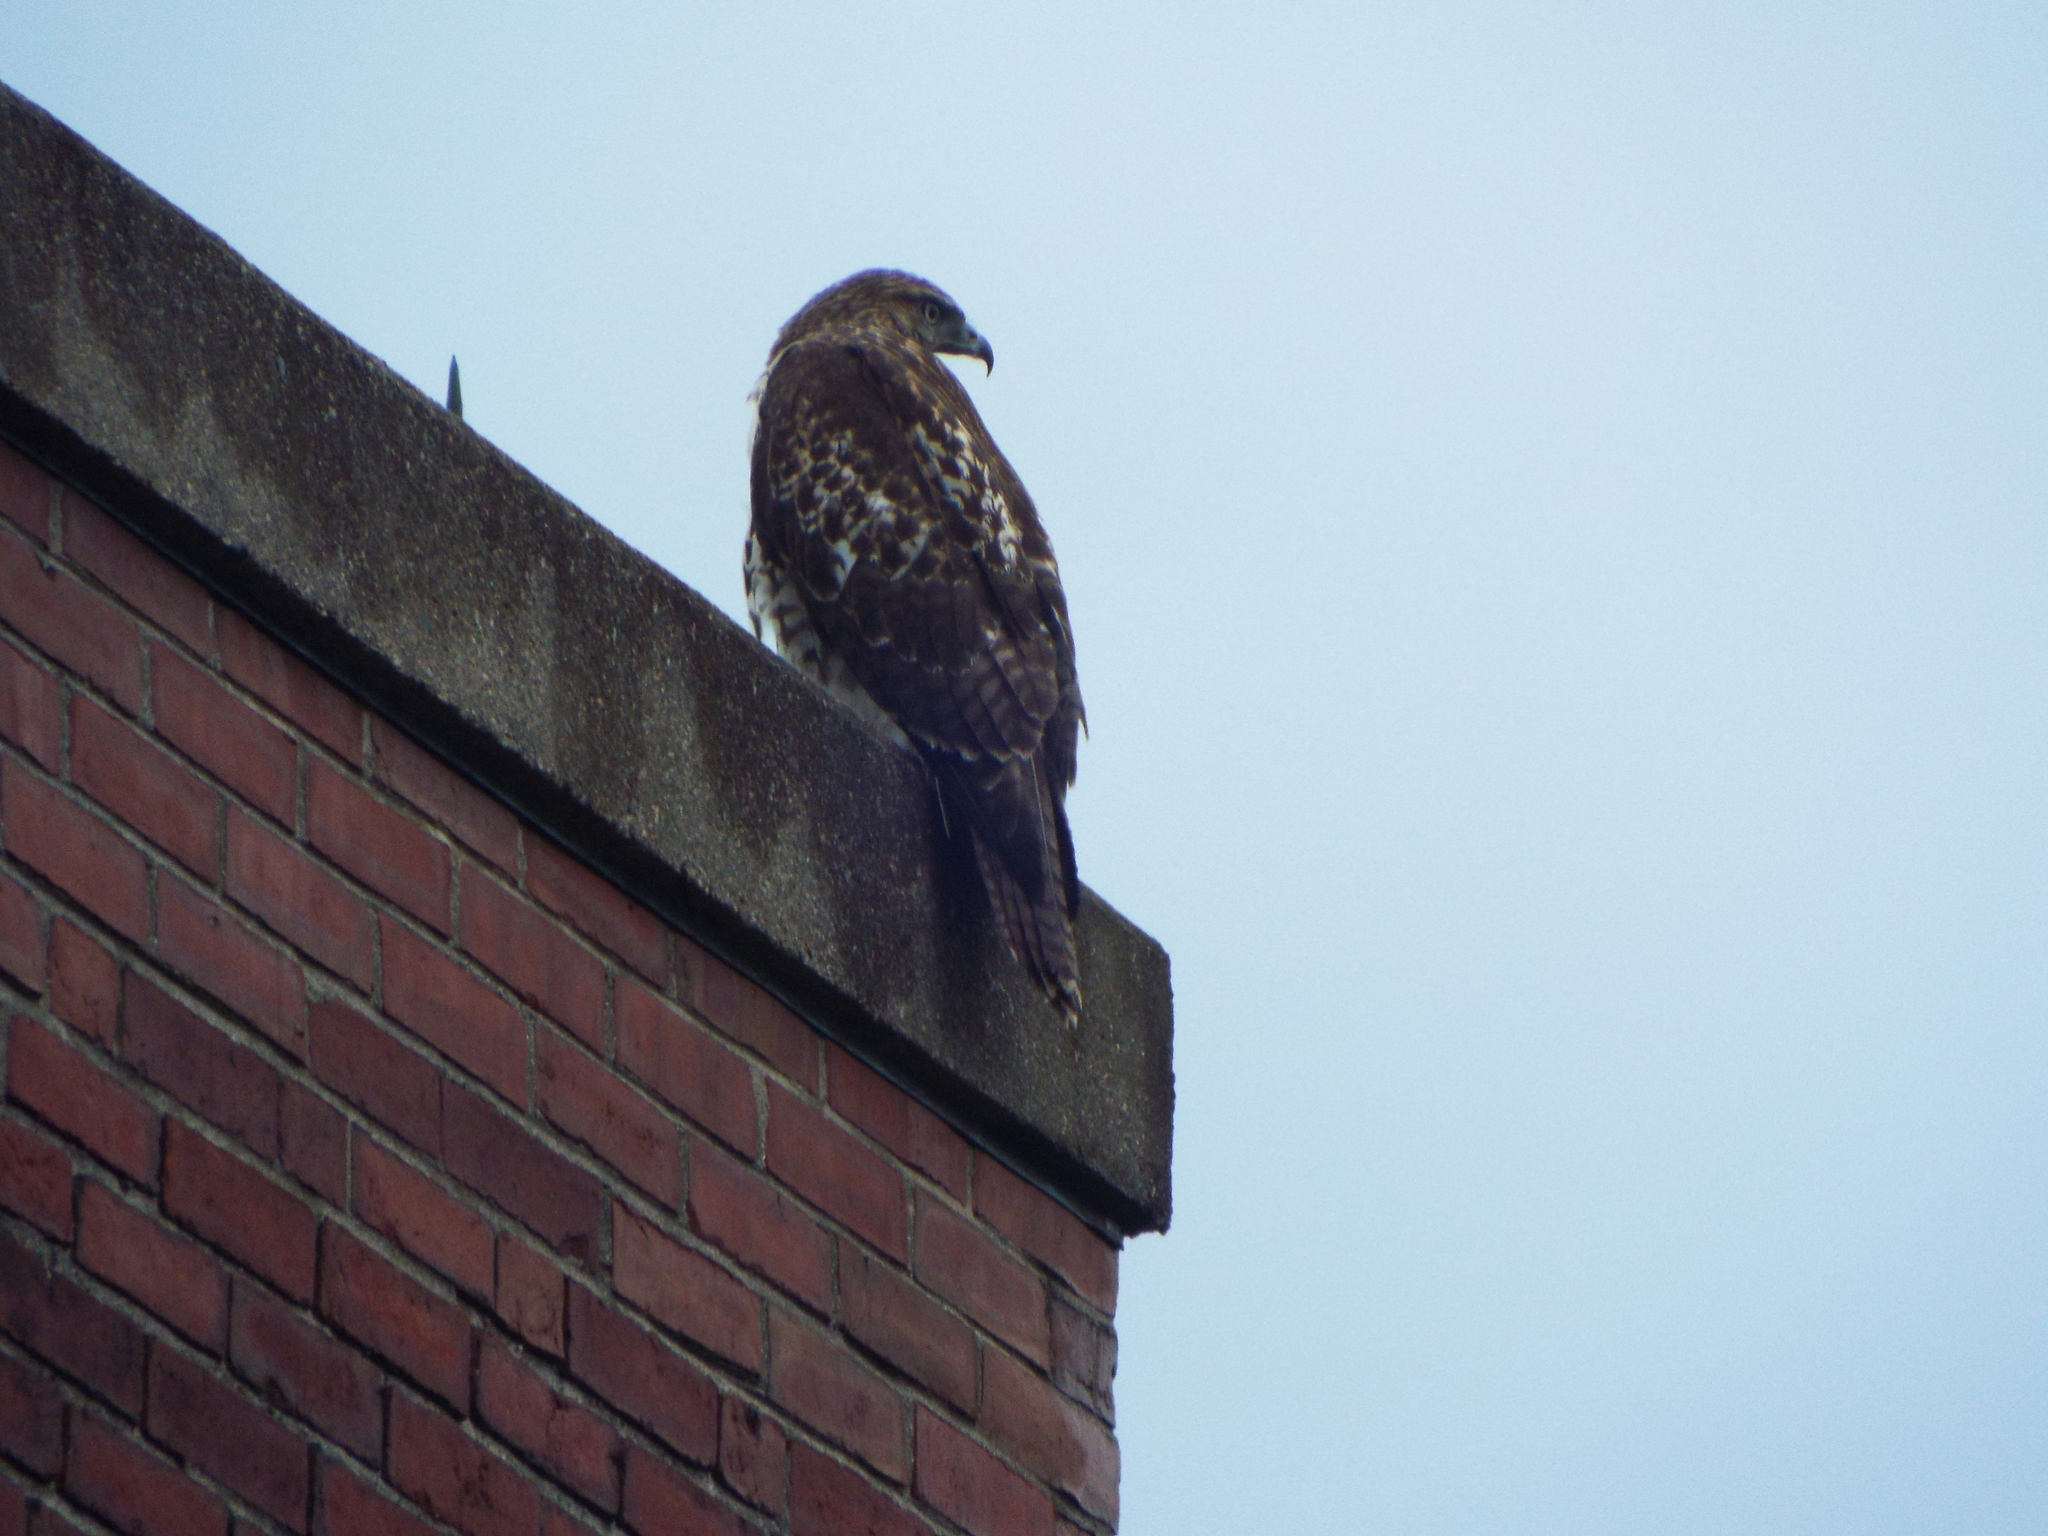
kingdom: Animalia
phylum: Chordata
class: Aves
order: Accipitriformes
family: Accipitridae
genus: Buteo
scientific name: Buteo jamaicensis
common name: Red-tailed hawk
